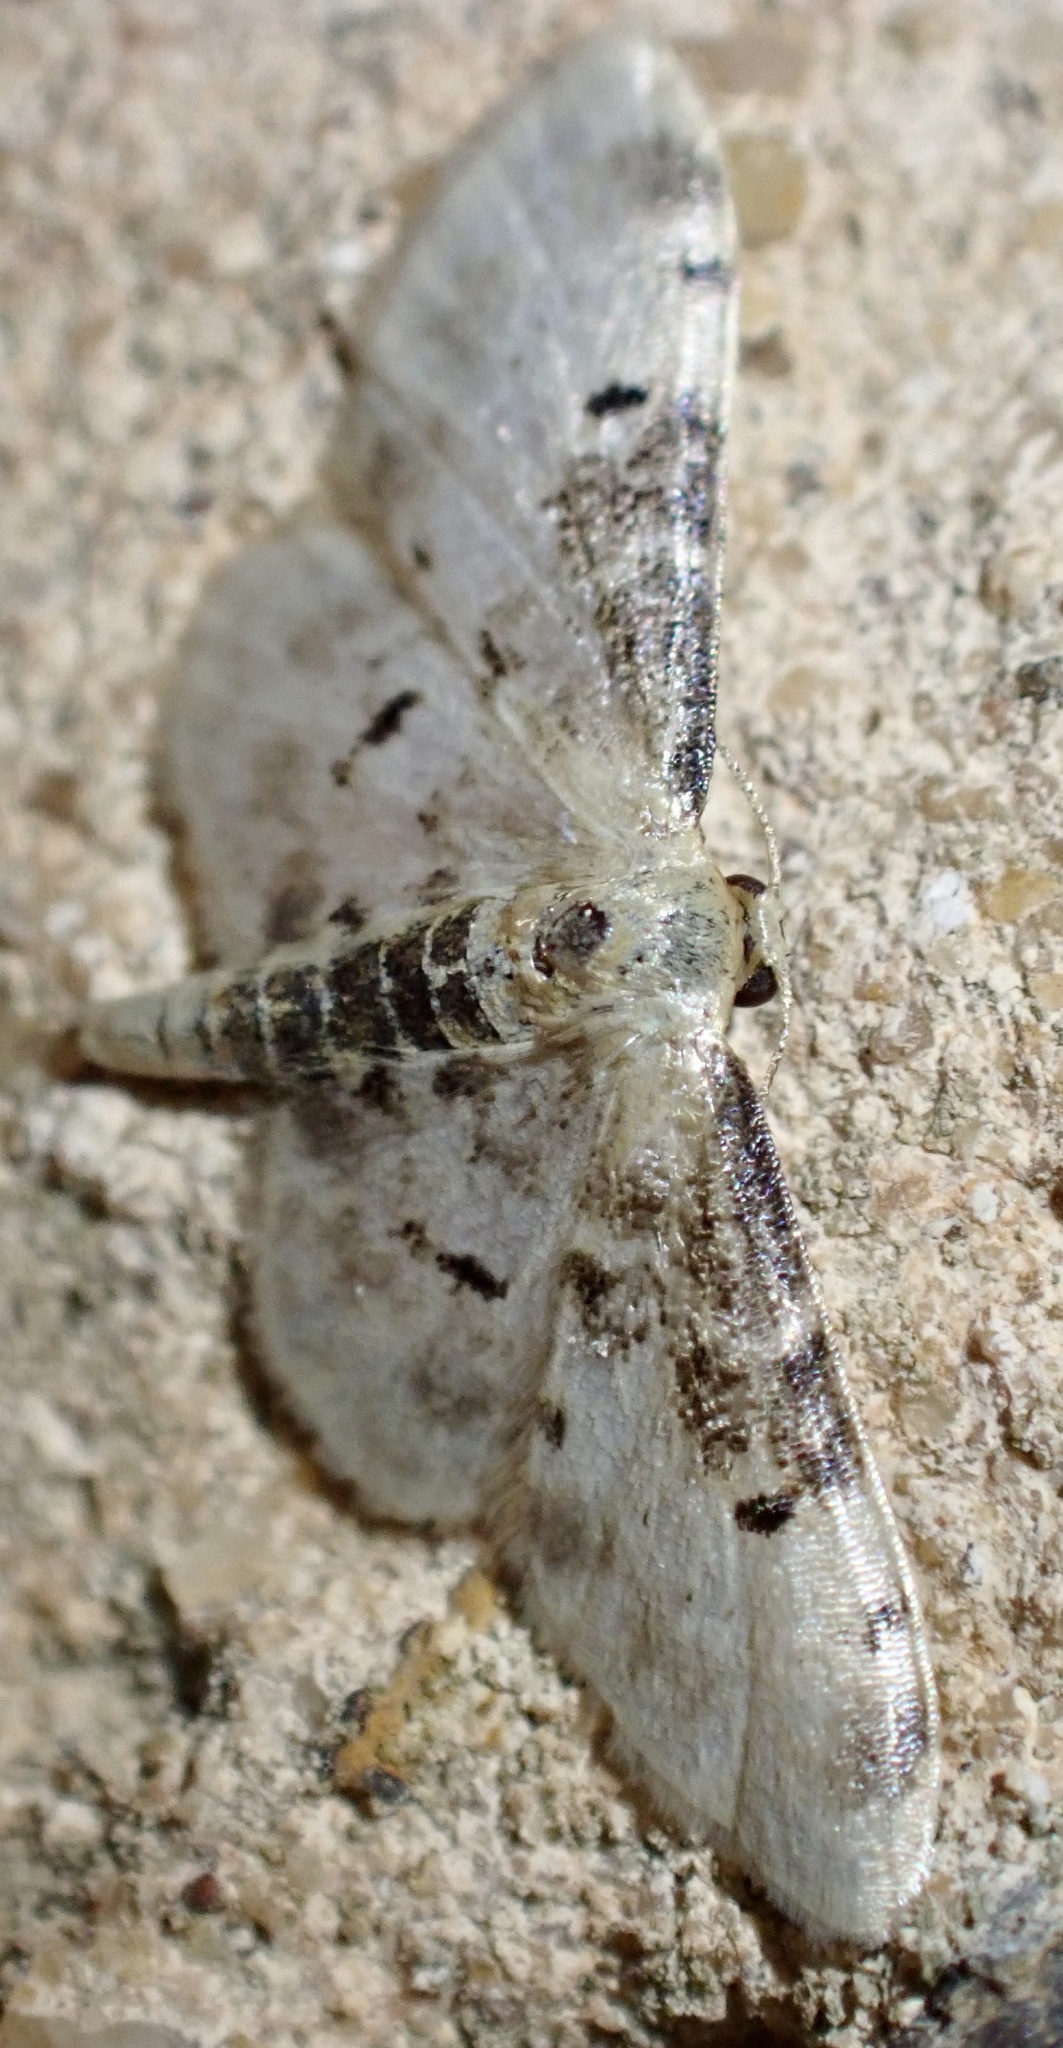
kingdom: Animalia
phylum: Arthropoda
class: Insecta
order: Lepidoptera
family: Geometridae
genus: Idaea
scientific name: Idaea filicata
